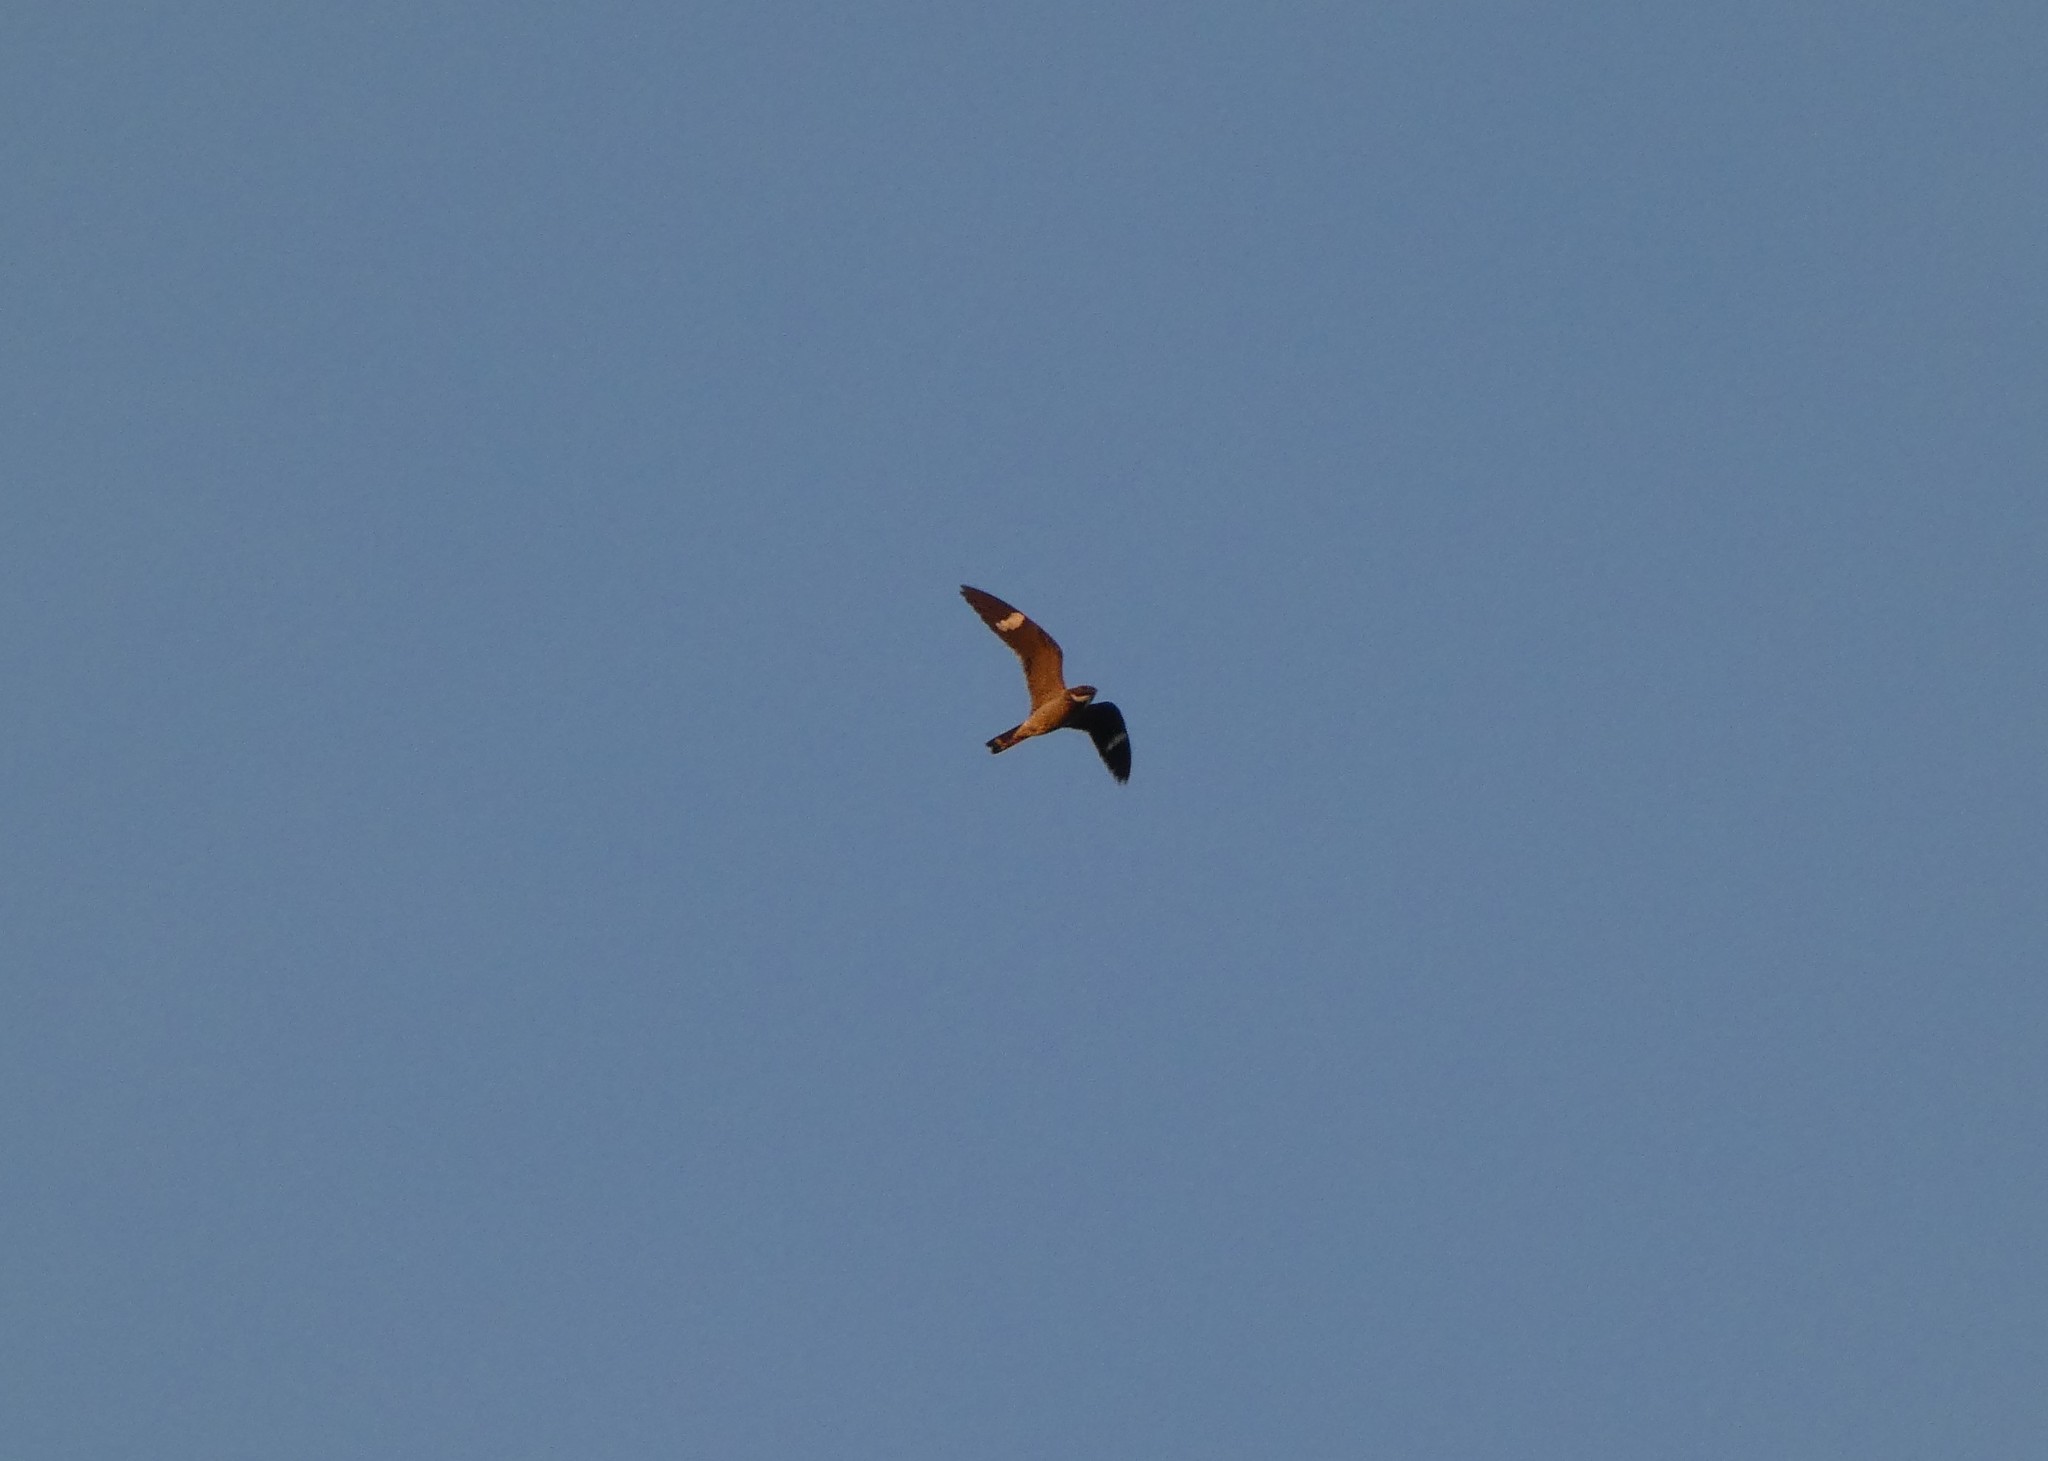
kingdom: Animalia
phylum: Chordata
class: Aves
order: Caprimulgiformes
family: Caprimulgidae
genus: Chordeiles
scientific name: Chordeiles minor
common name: Common nighthawk
